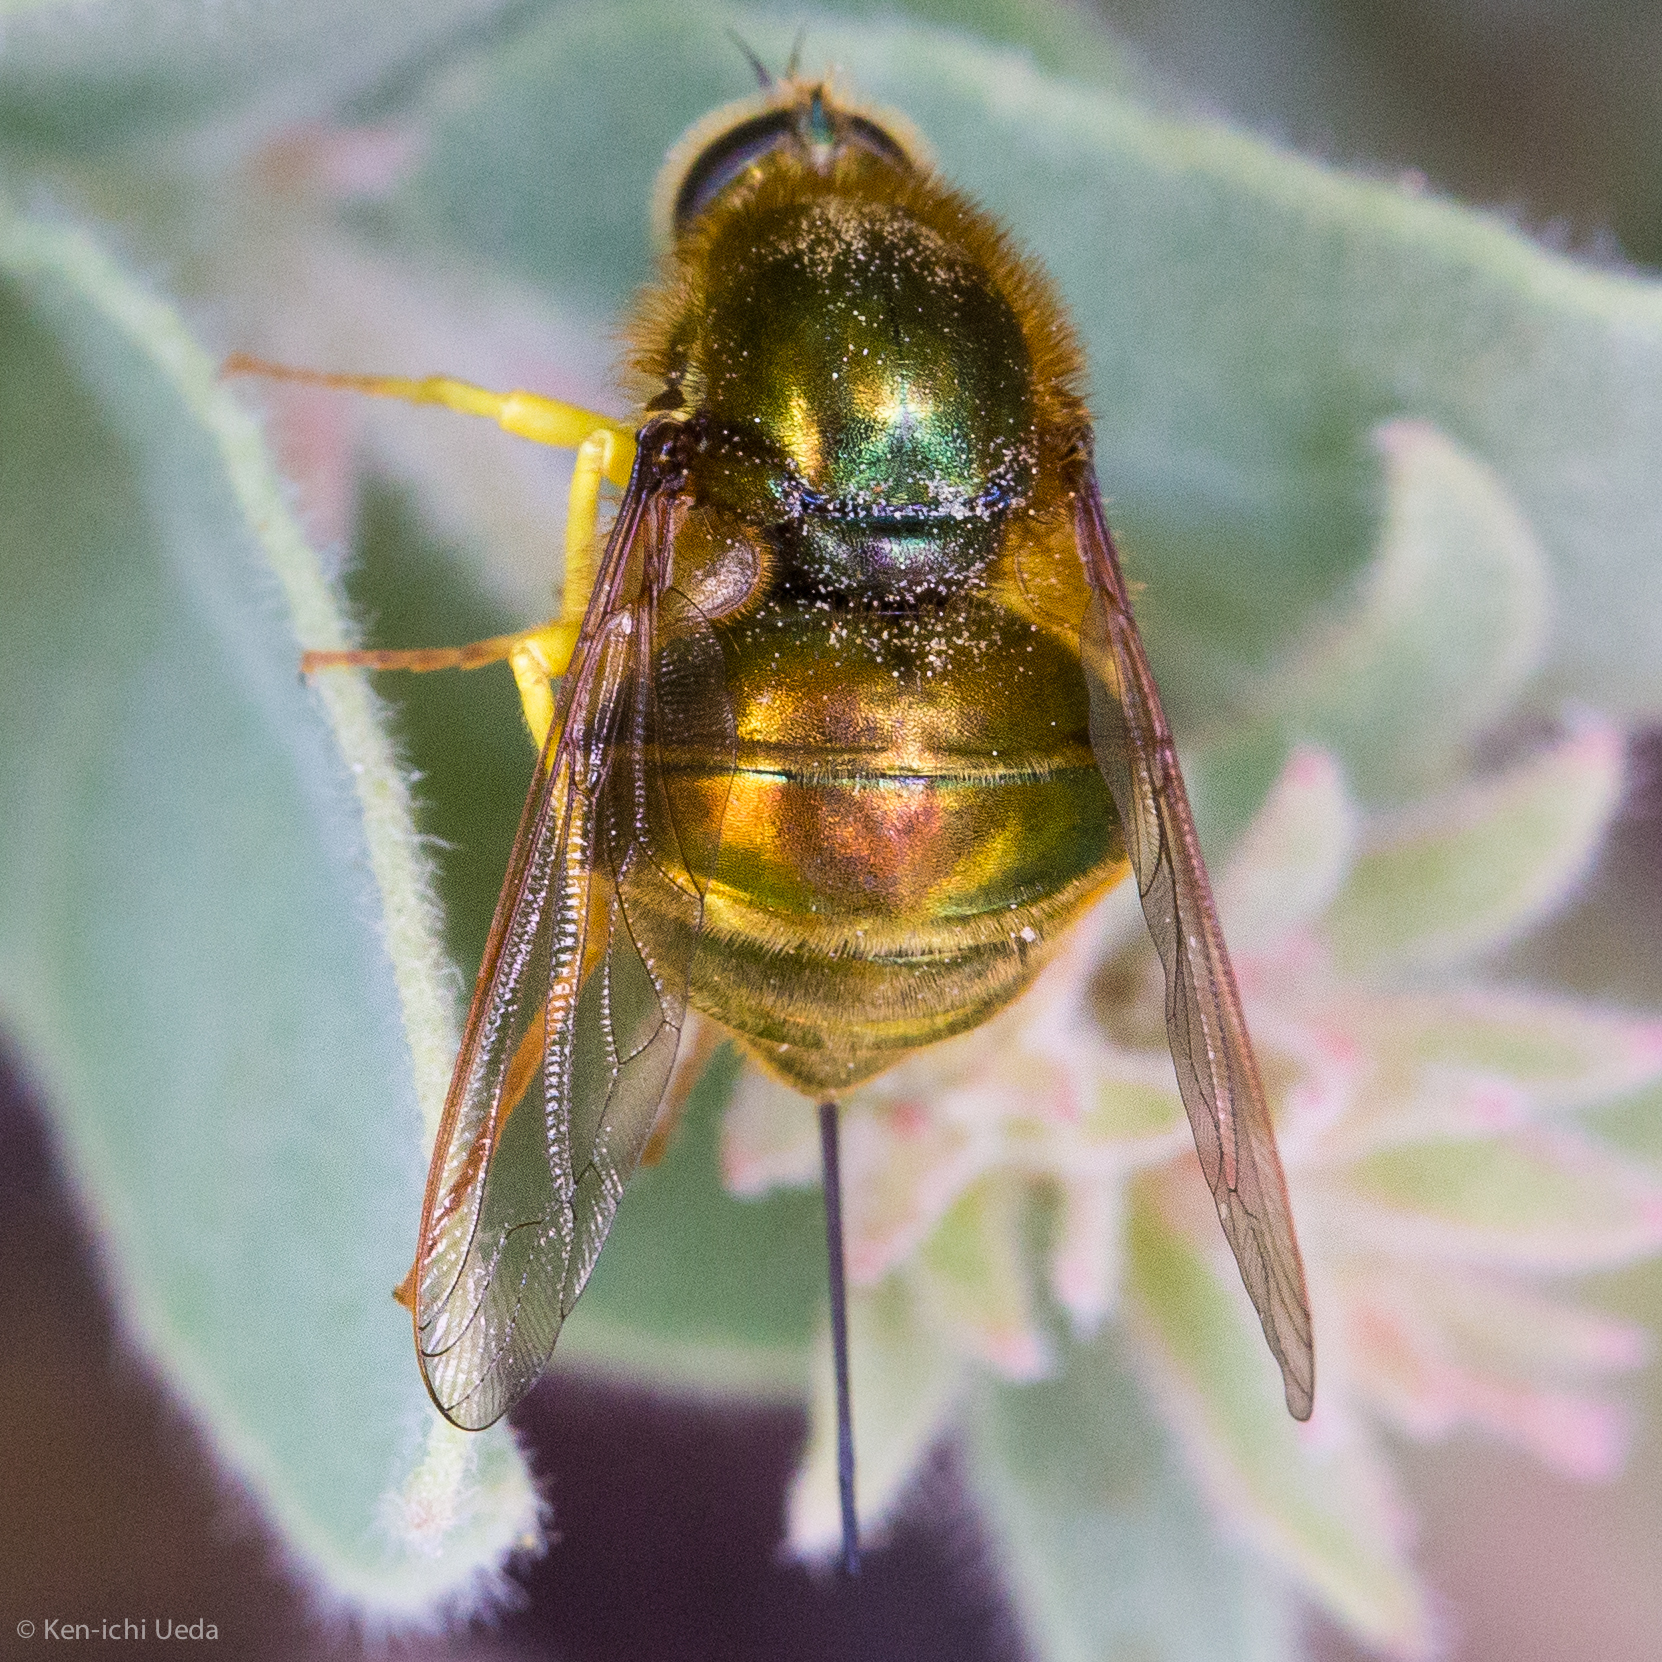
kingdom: Animalia
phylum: Arthropoda
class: Insecta
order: Diptera
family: Acroceridae
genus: Eulonchus
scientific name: Eulonchus smaragdinus
